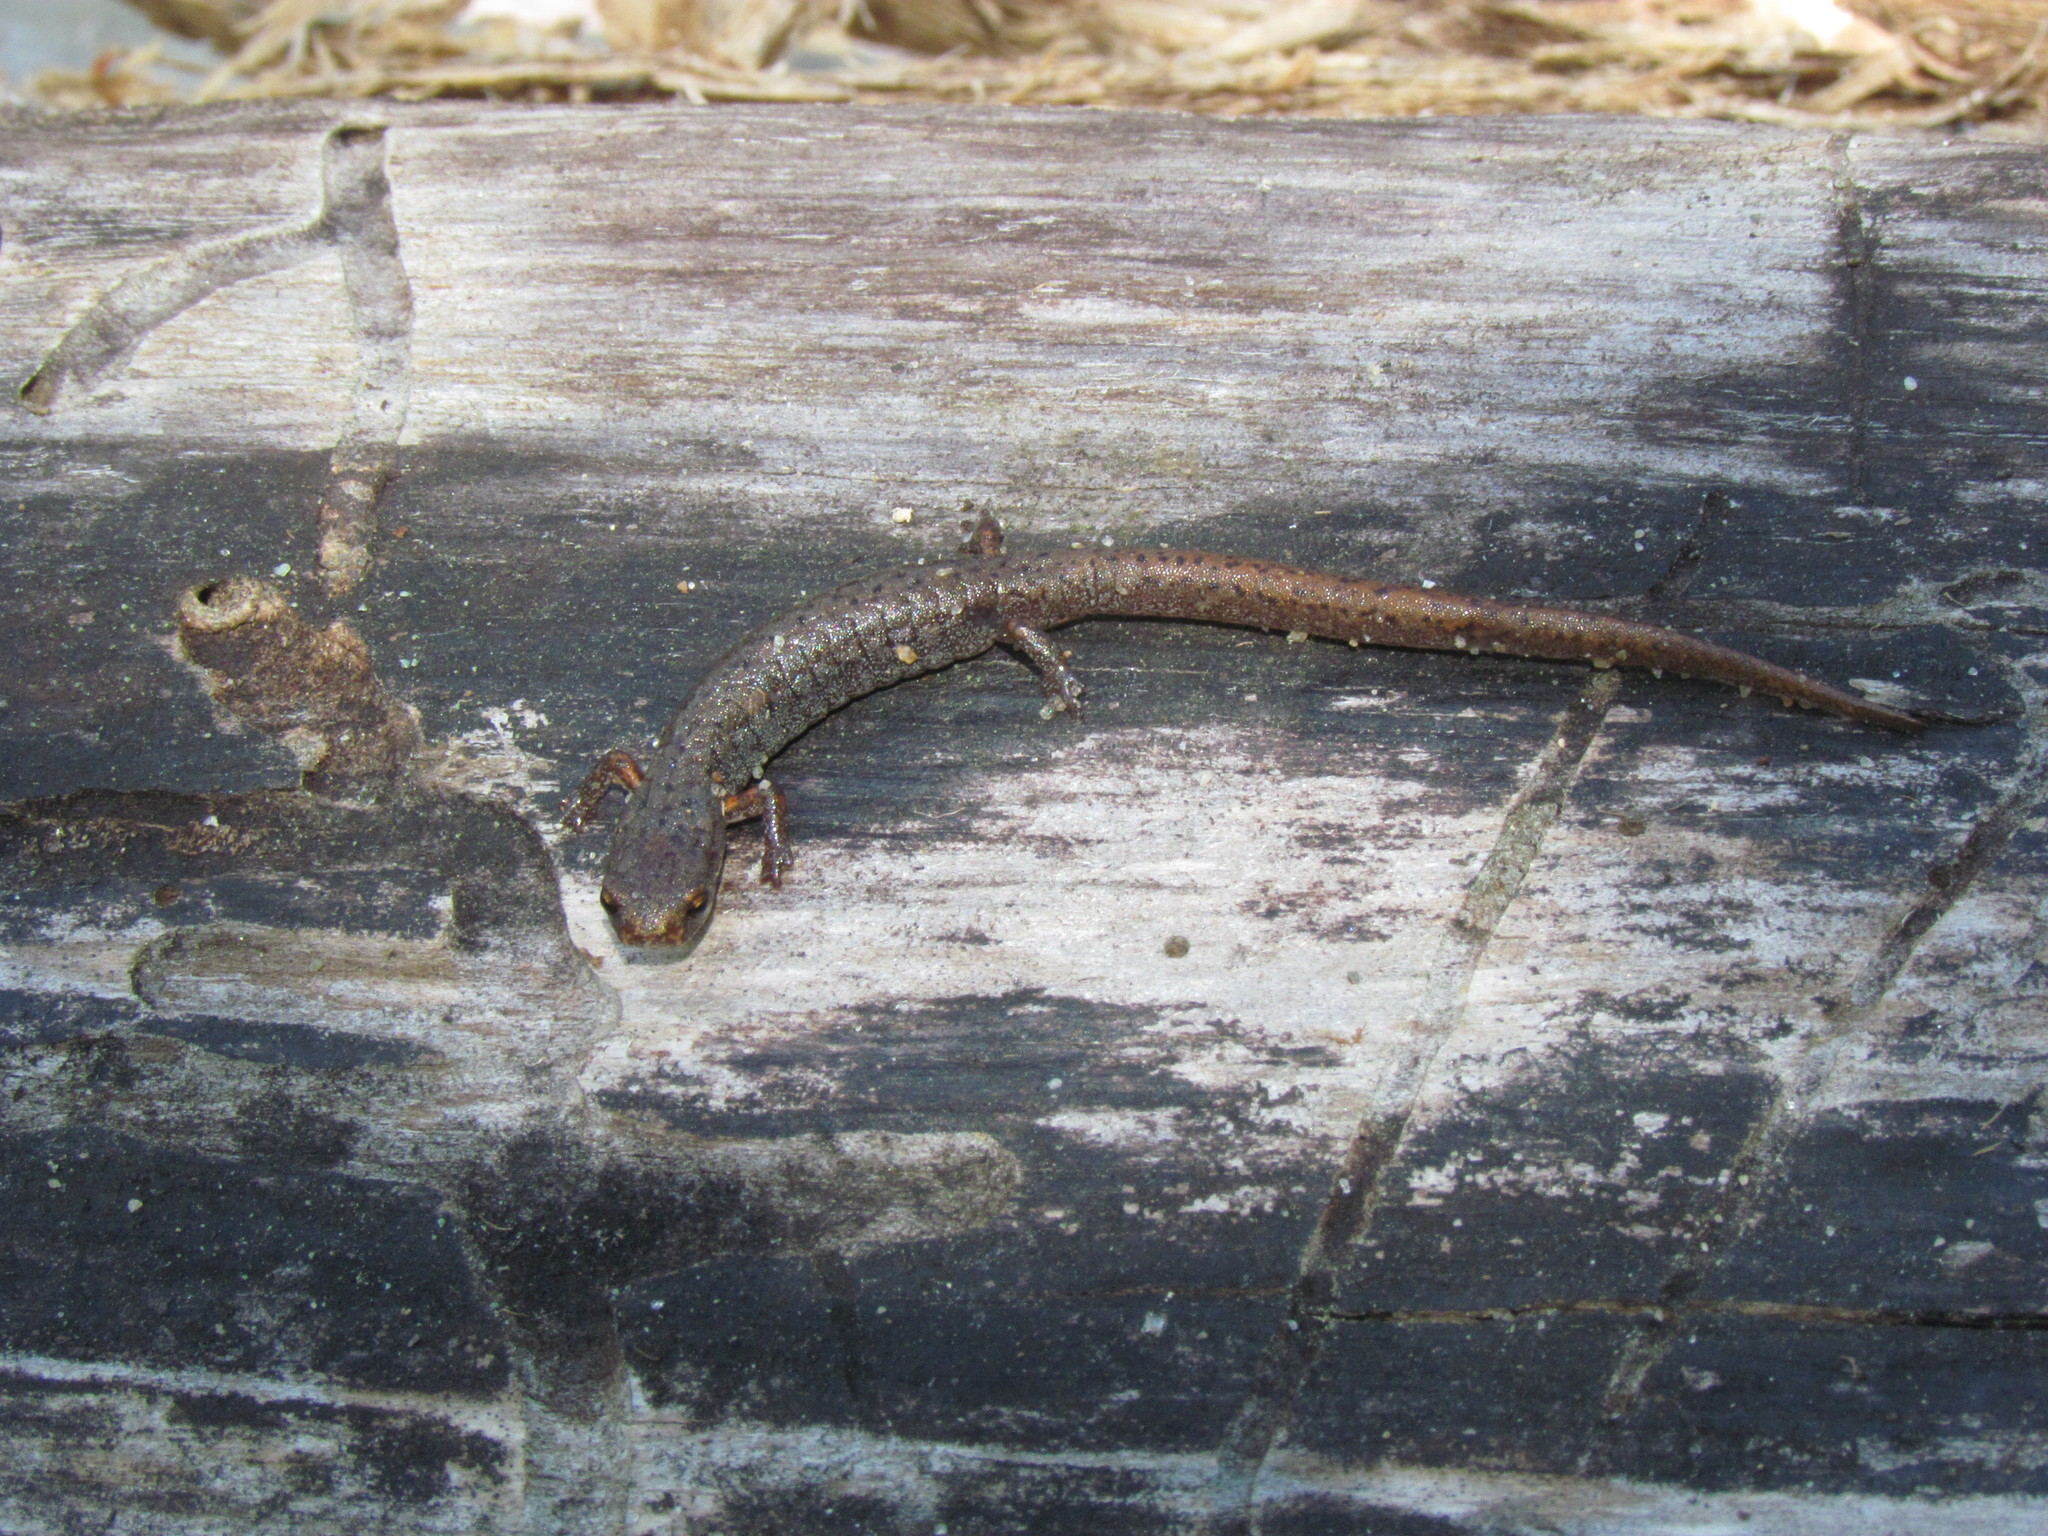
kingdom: Animalia
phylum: Chordata
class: Amphibia
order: Caudata
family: Plethodontidae
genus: Hemidactylium
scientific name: Hemidactylium scutatum
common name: Four-toed salamander
